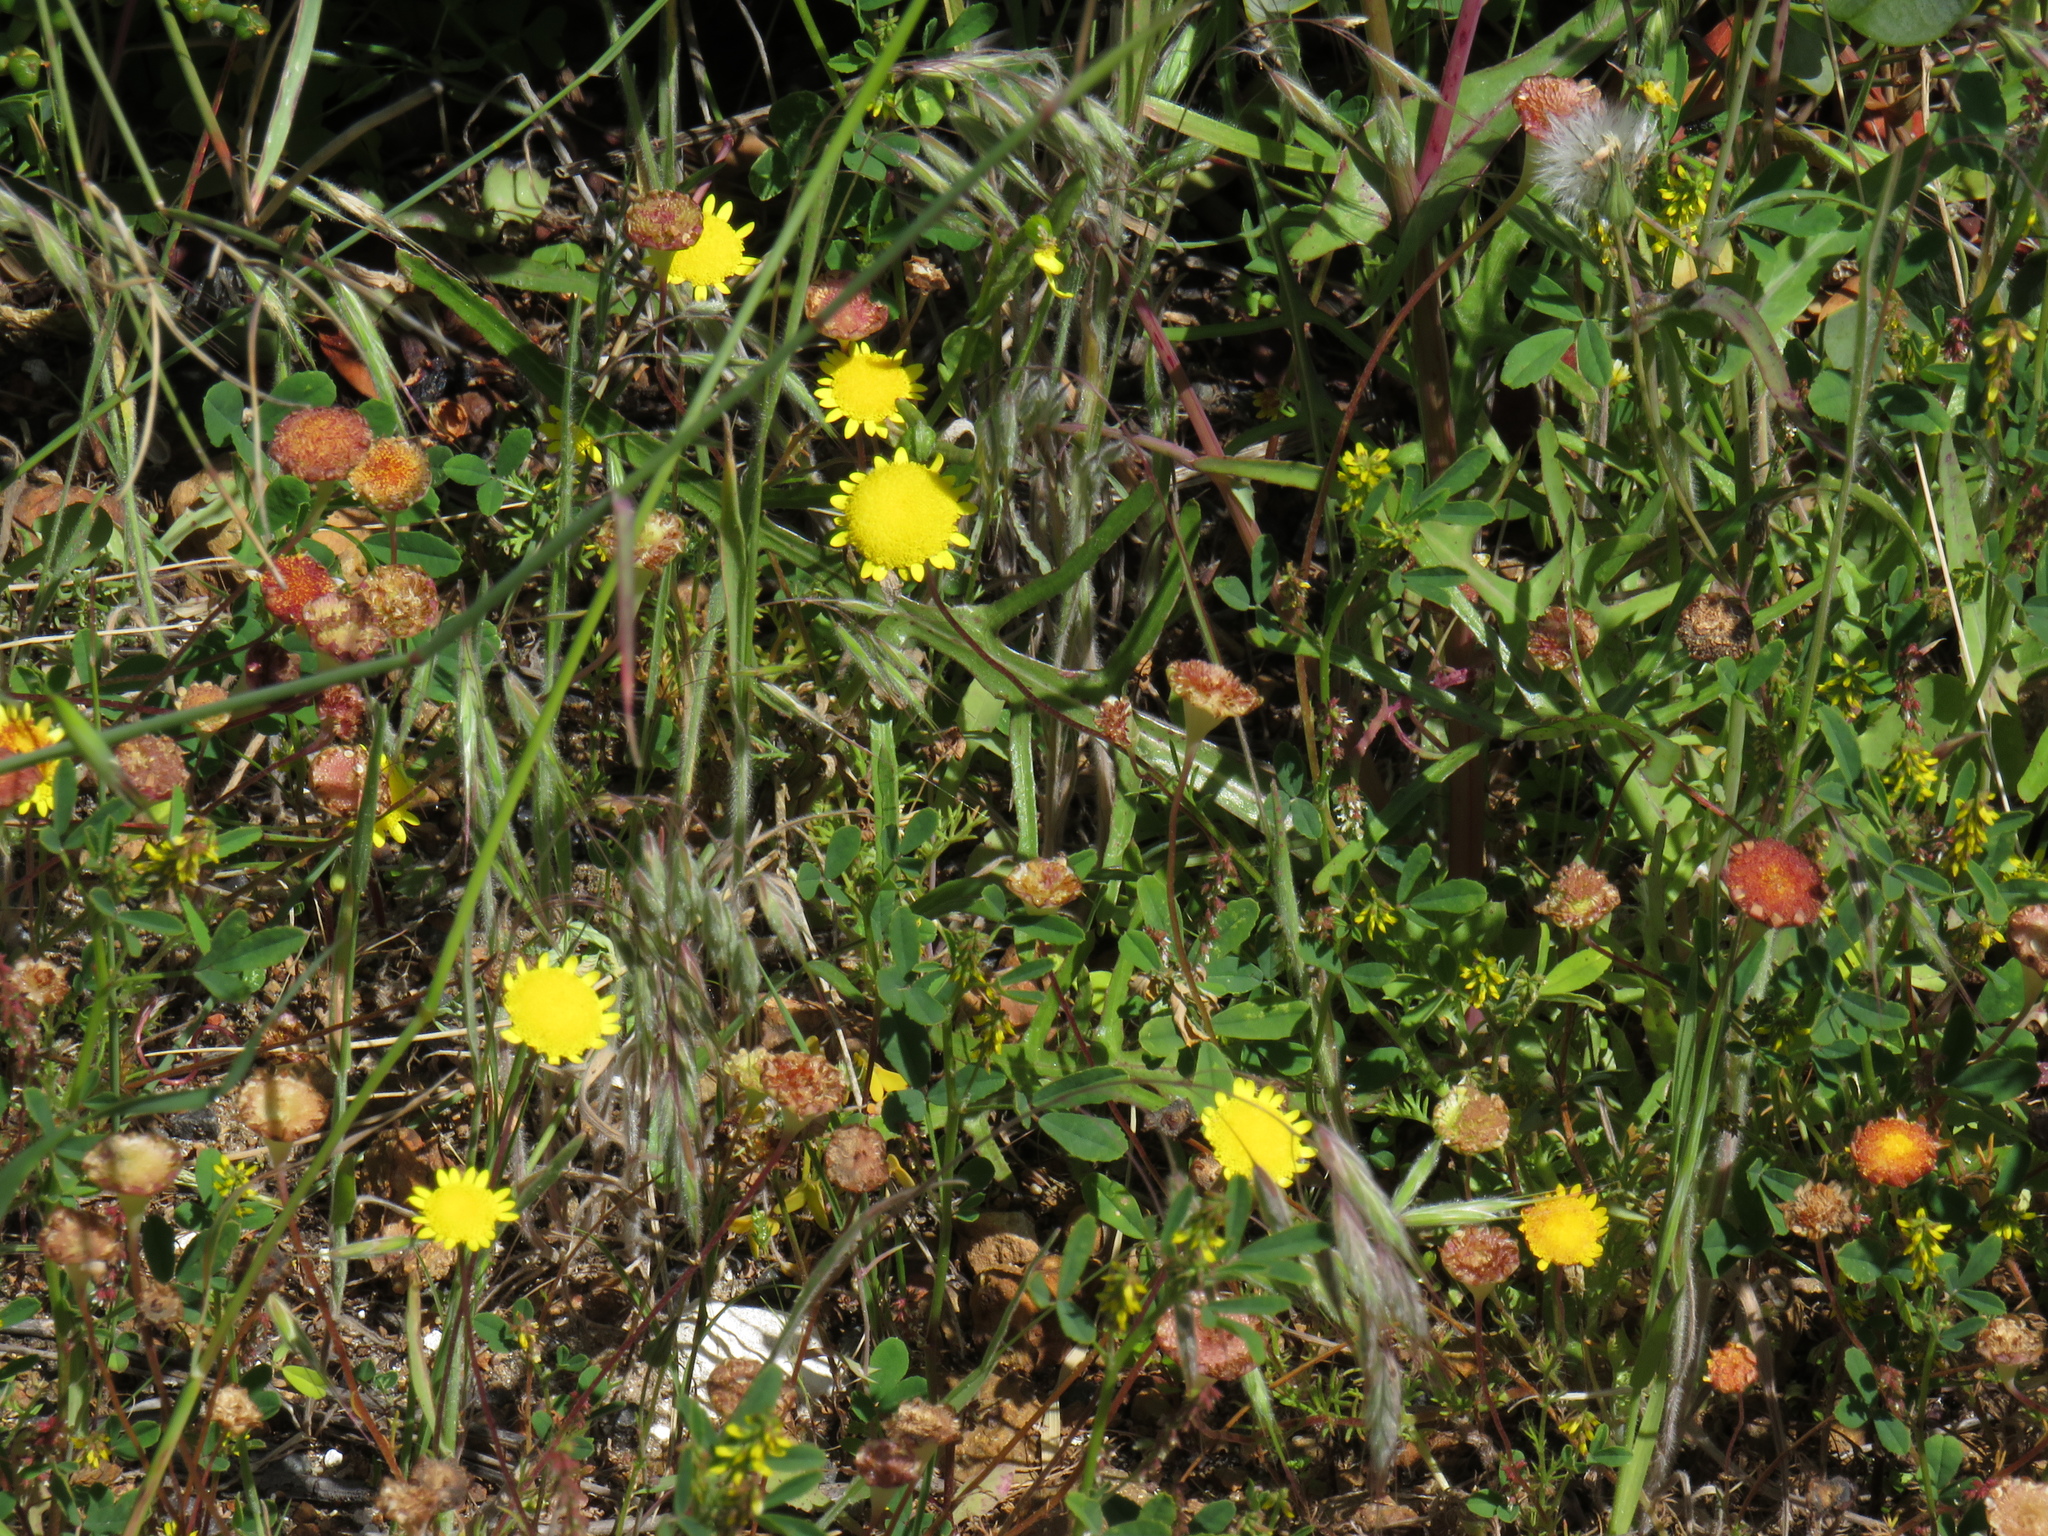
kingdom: Plantae
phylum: Tracheophyta
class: Magnoliopsida
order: Asterales
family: Asteraceae
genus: Cotula
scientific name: Cotula pruinosa
